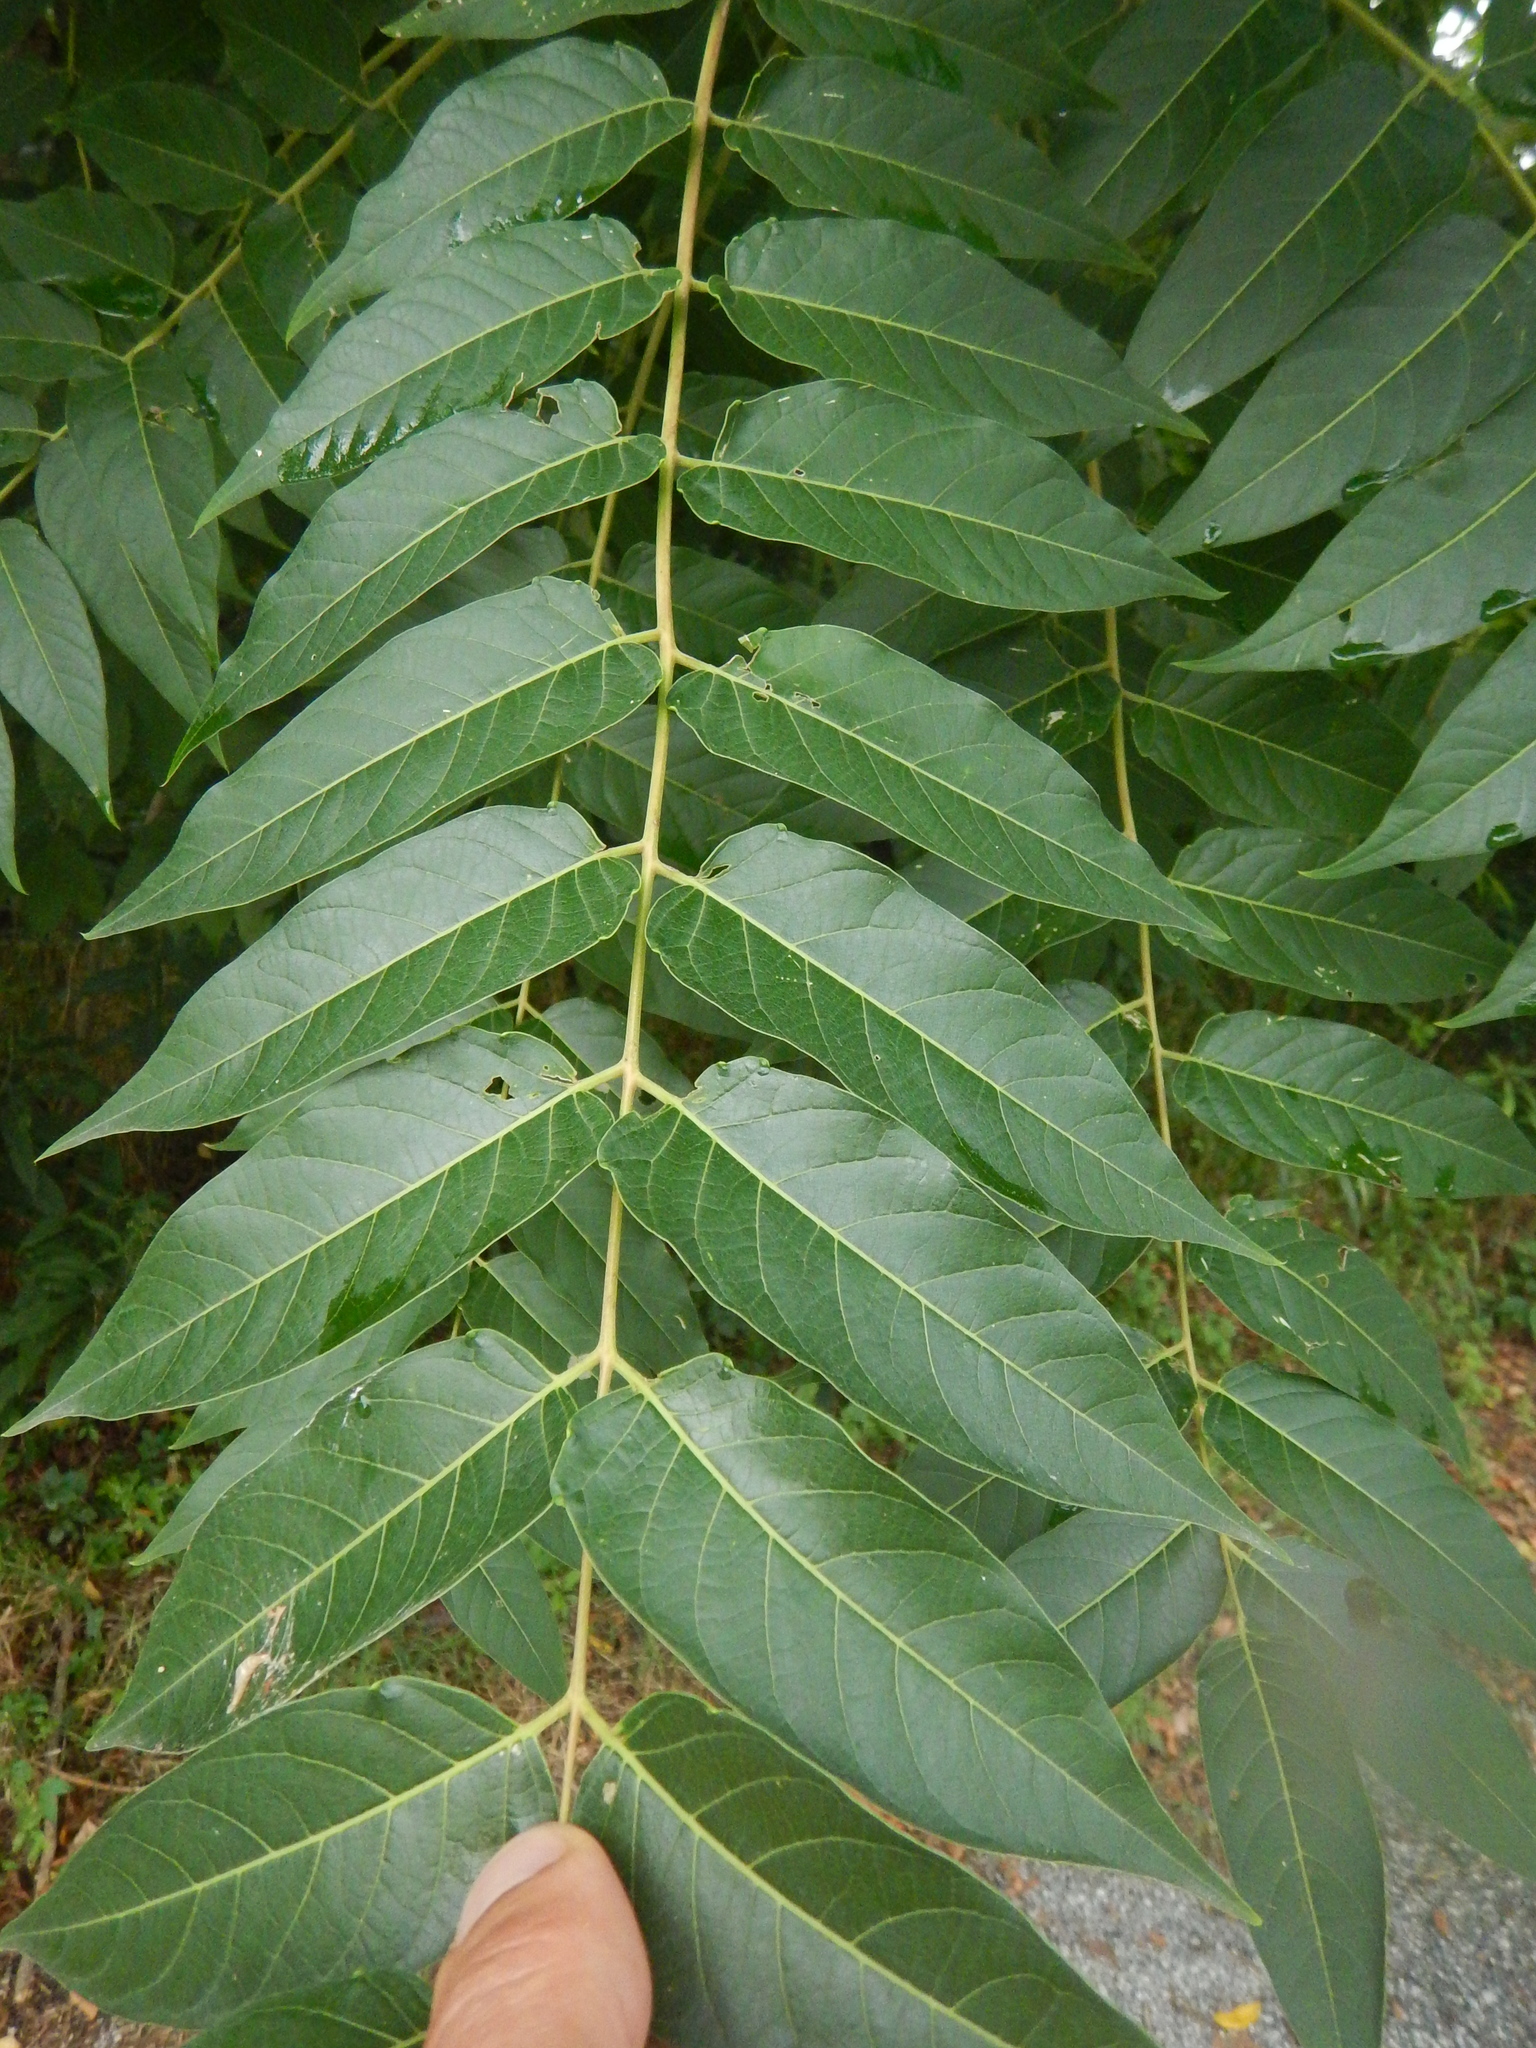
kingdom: Plantae
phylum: Tracheophyta
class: Magnoliopsida
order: Sapindales
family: Simaroubaceae
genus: Ailanthus
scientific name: Ailanthus altissima
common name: Tree-of-heaven
